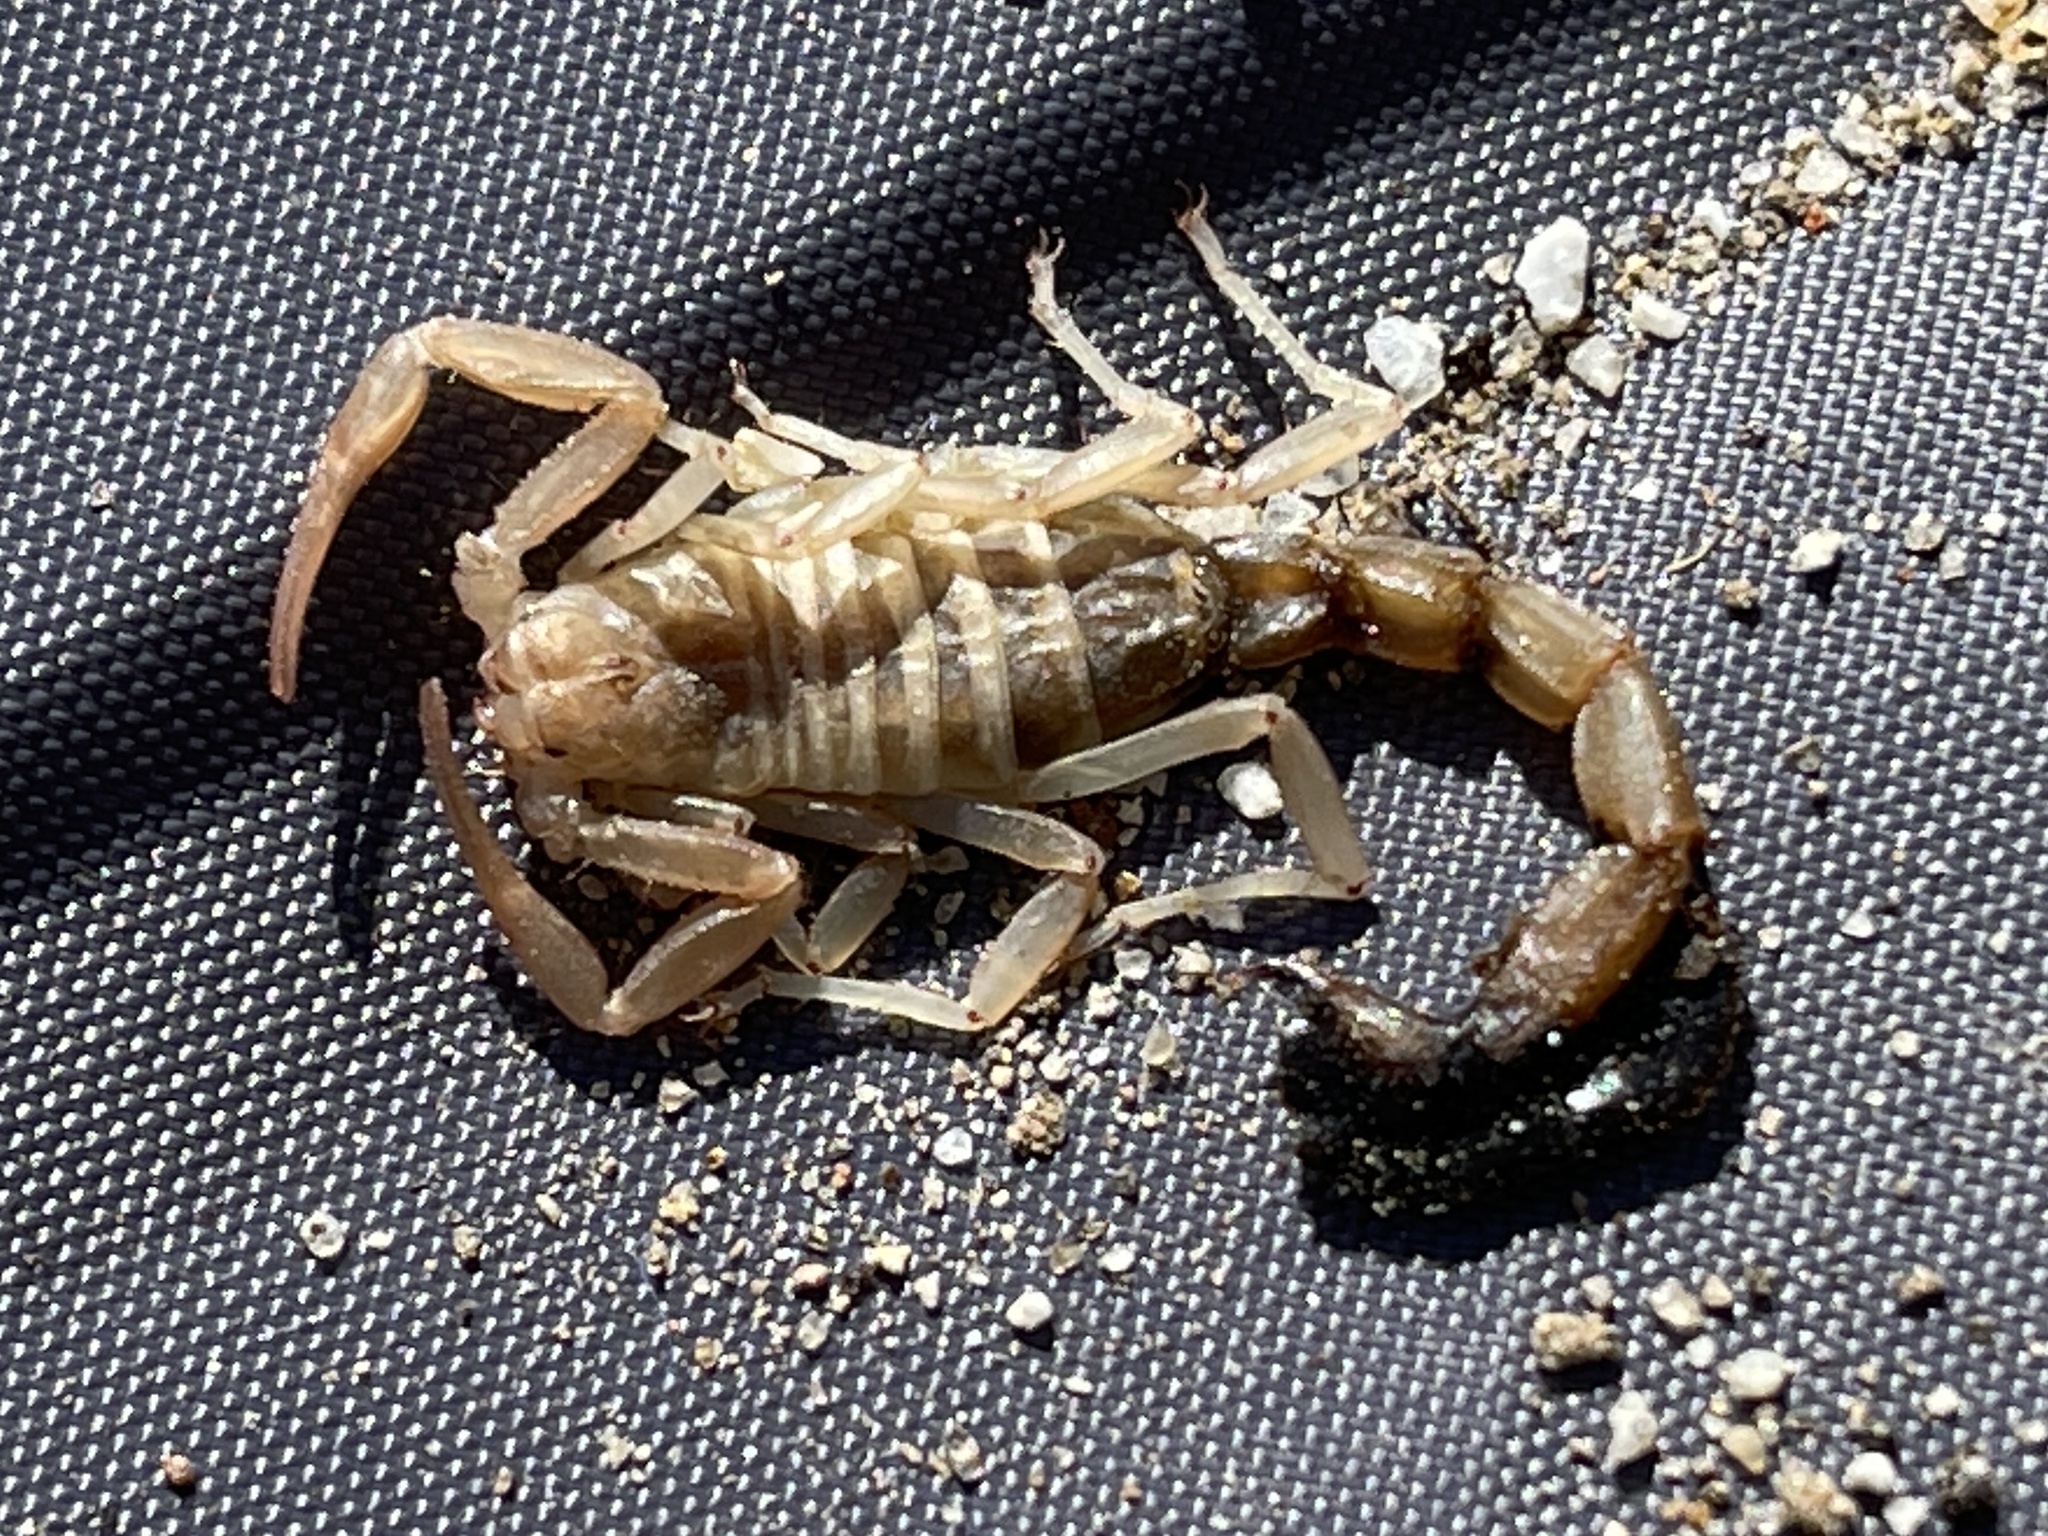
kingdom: Animalia
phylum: Arthropoda
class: Arachnida
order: Scorpiones
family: Vaejovidae
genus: Paravaejovis
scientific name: Paravaejovis waeringi
